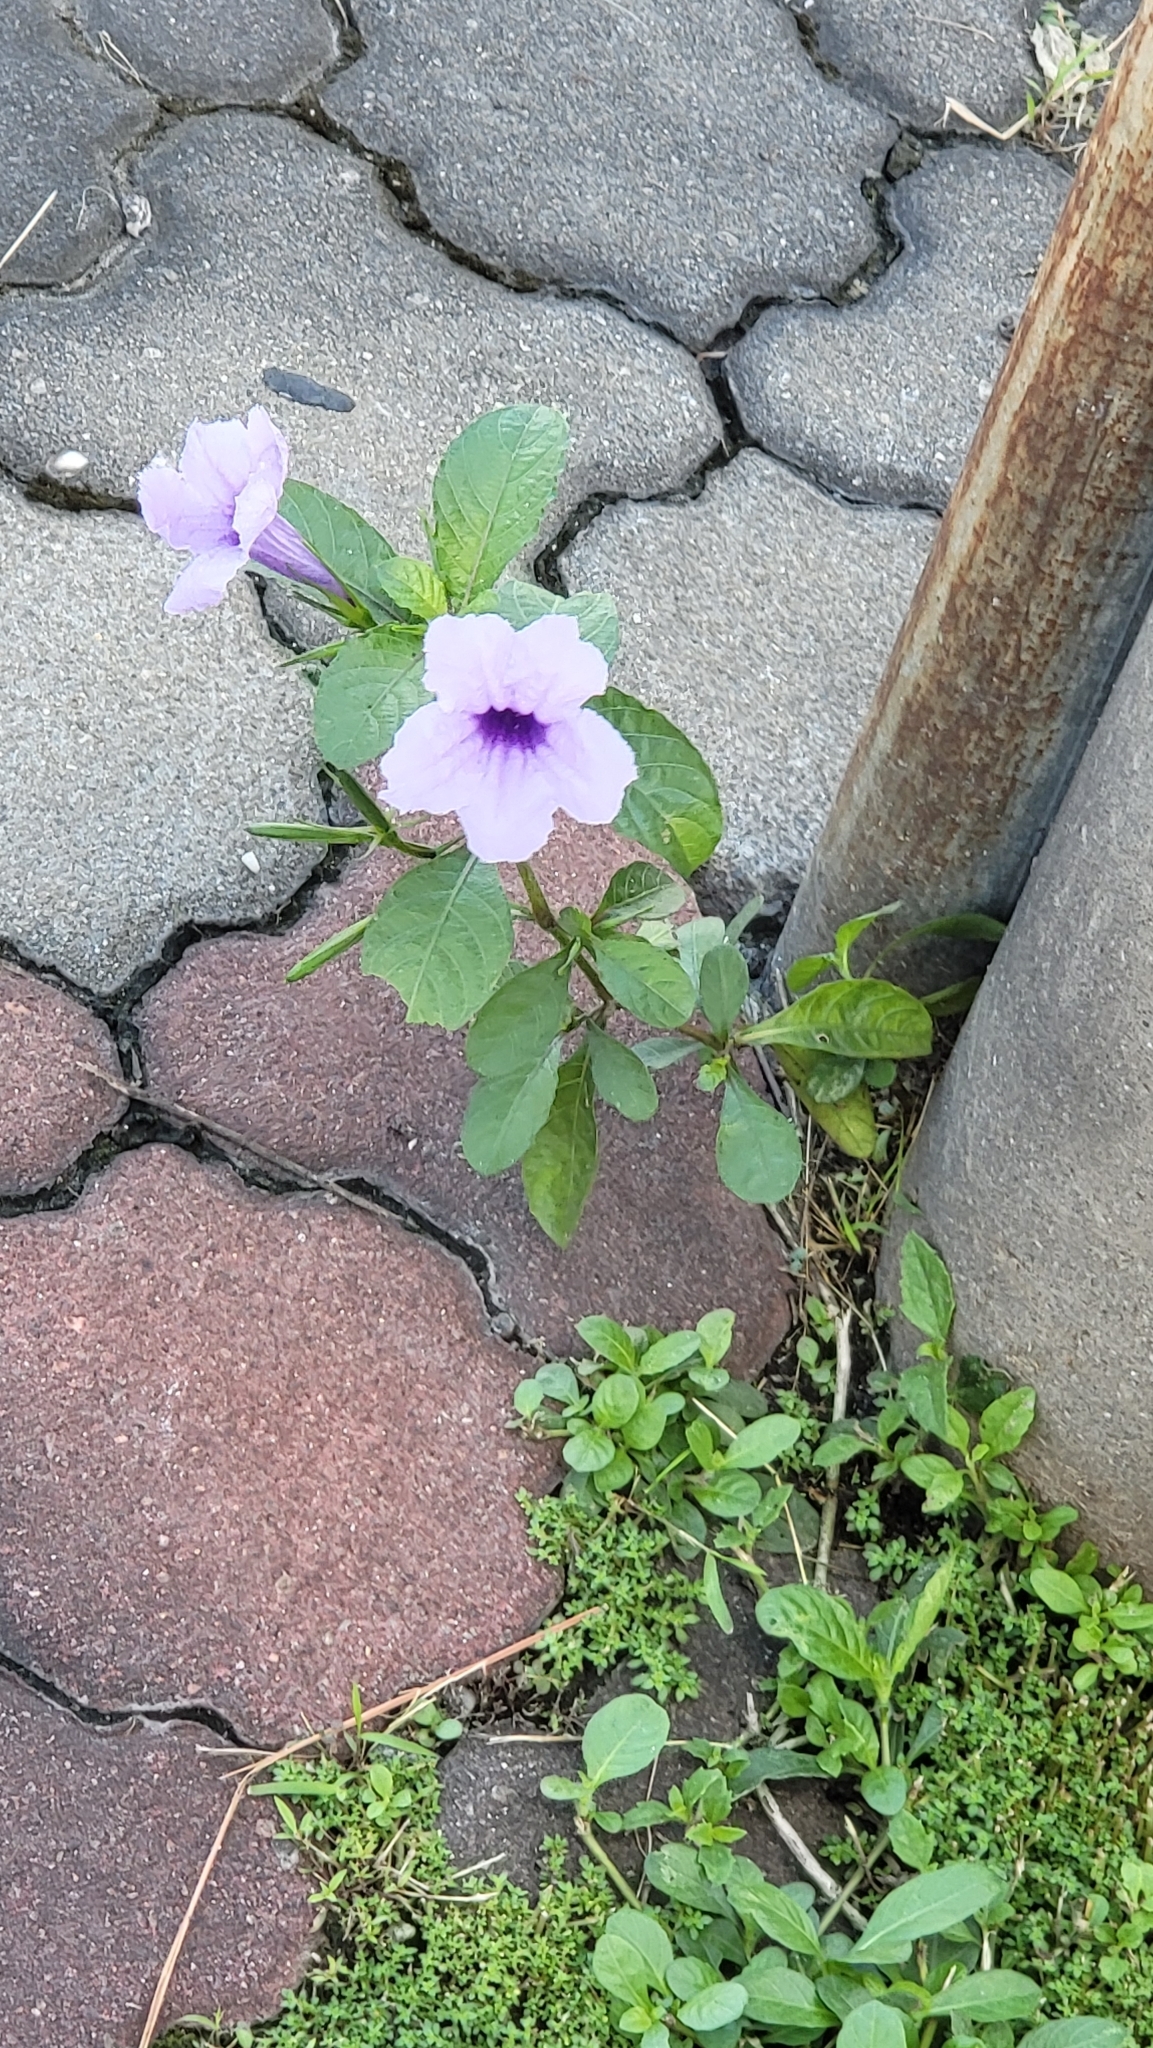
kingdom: Plantae
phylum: Tracheophyta
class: Magnoliopsida
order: Lamiales
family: Acanthaceae
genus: Ruellia
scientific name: Ruellia tuberosa
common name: Devil's bit
